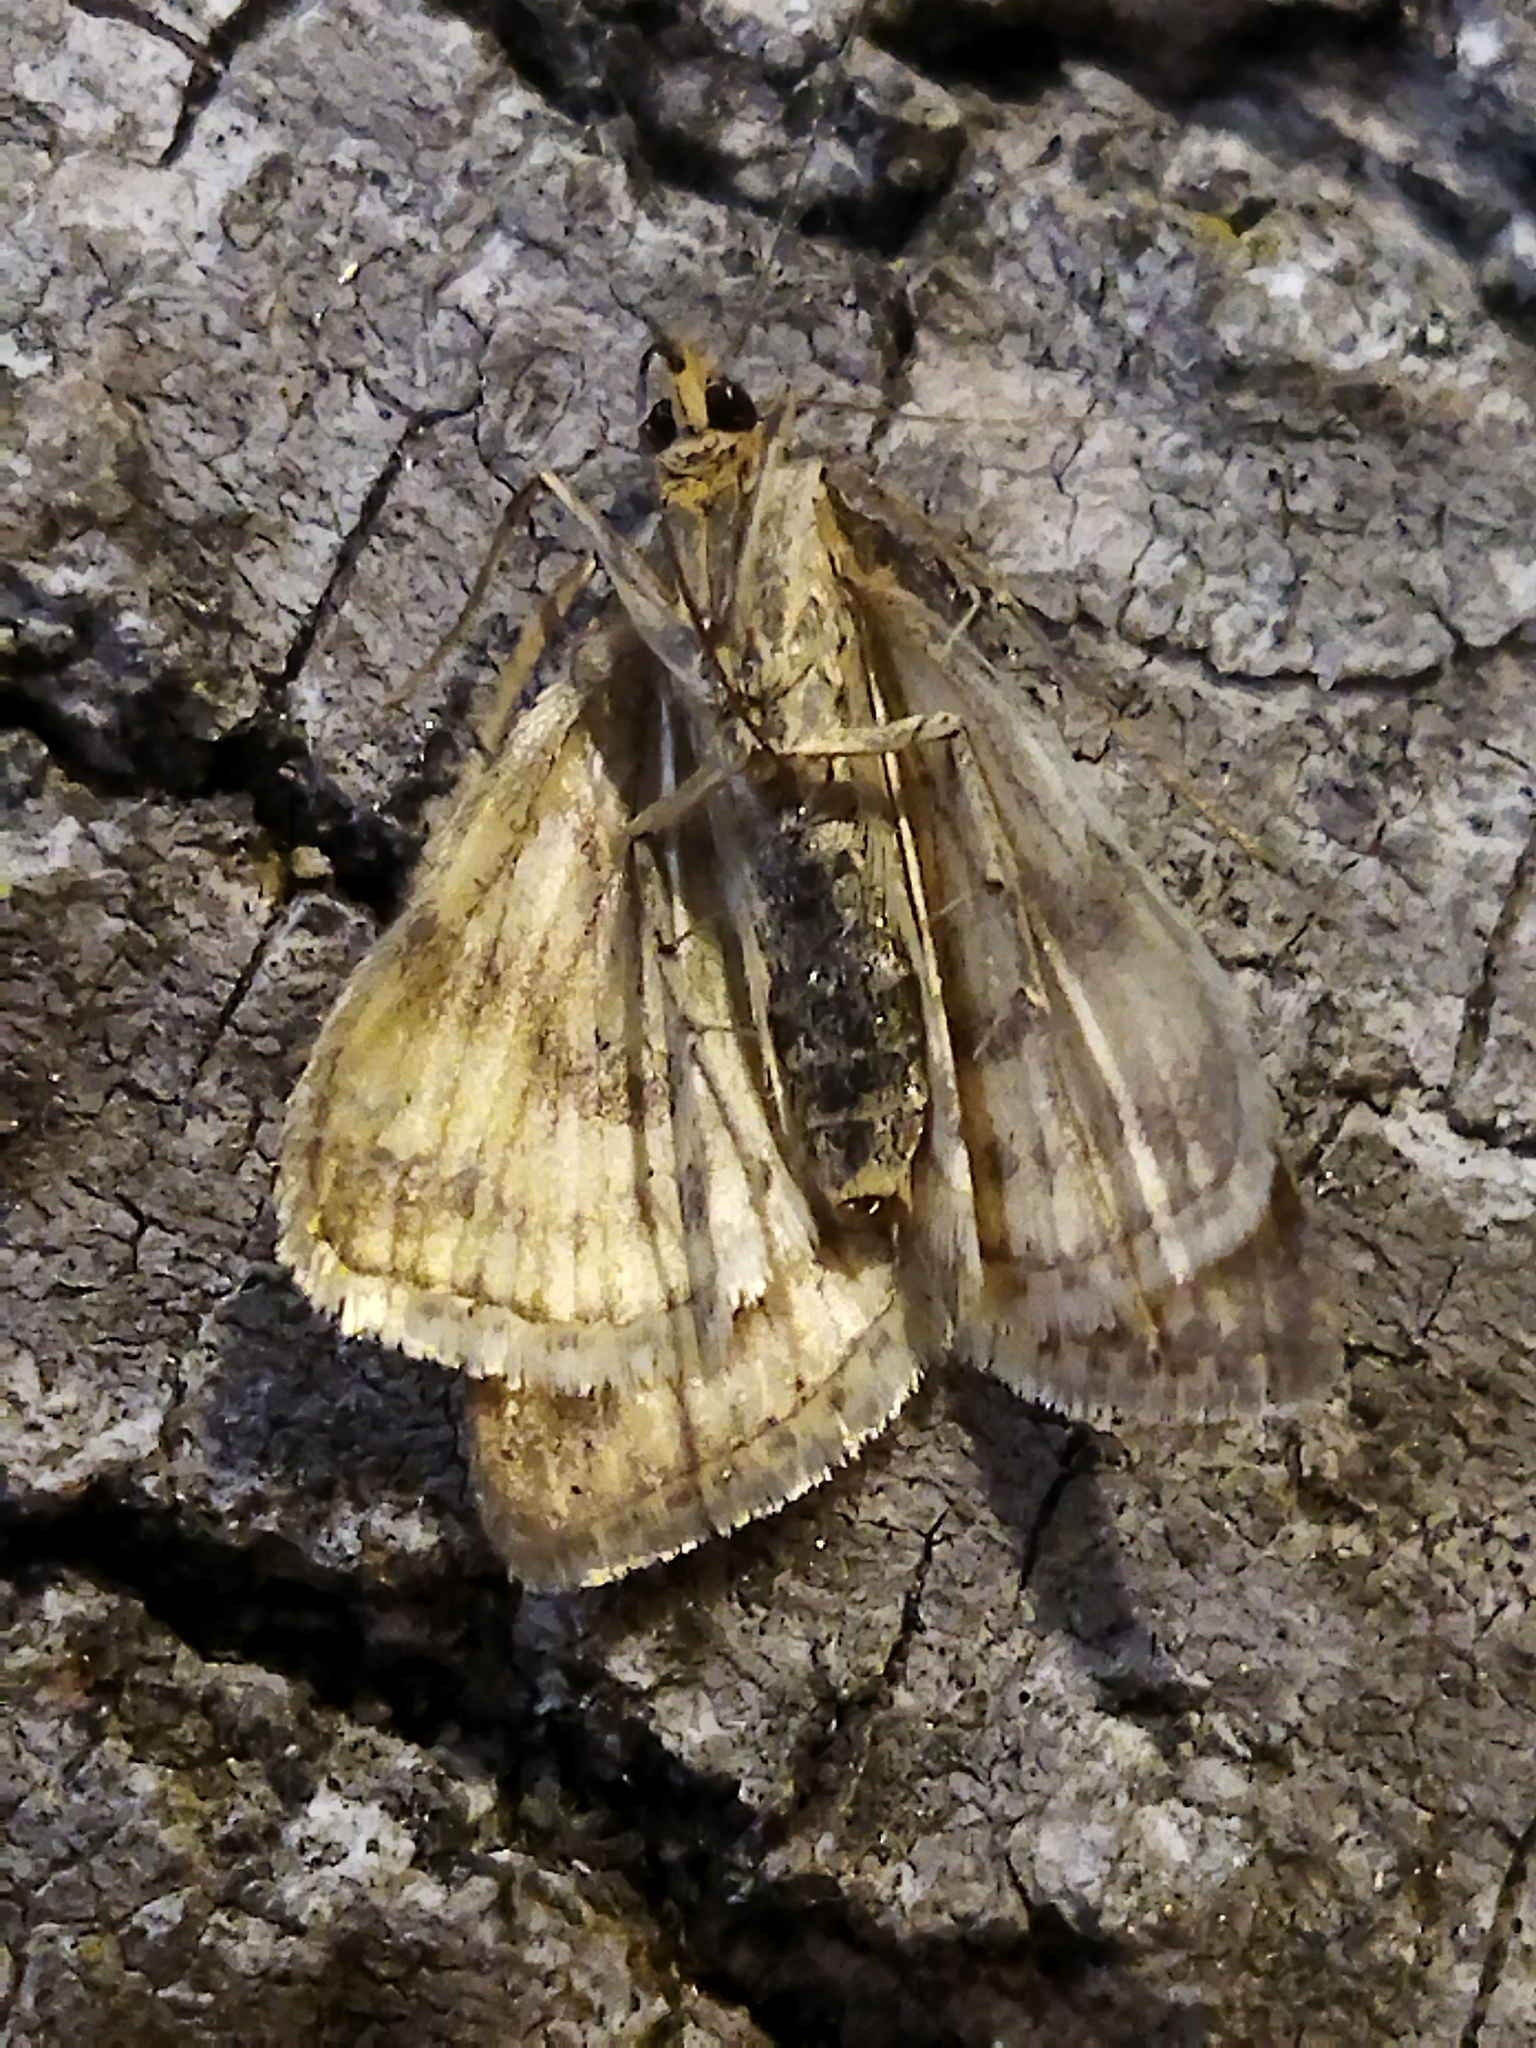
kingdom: Animalia
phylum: Arthropoda
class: Insecta
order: Lepidoptera
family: Crambidae
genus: Sitochroa
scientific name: Sitochroa verticalis
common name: Lesser pearl
